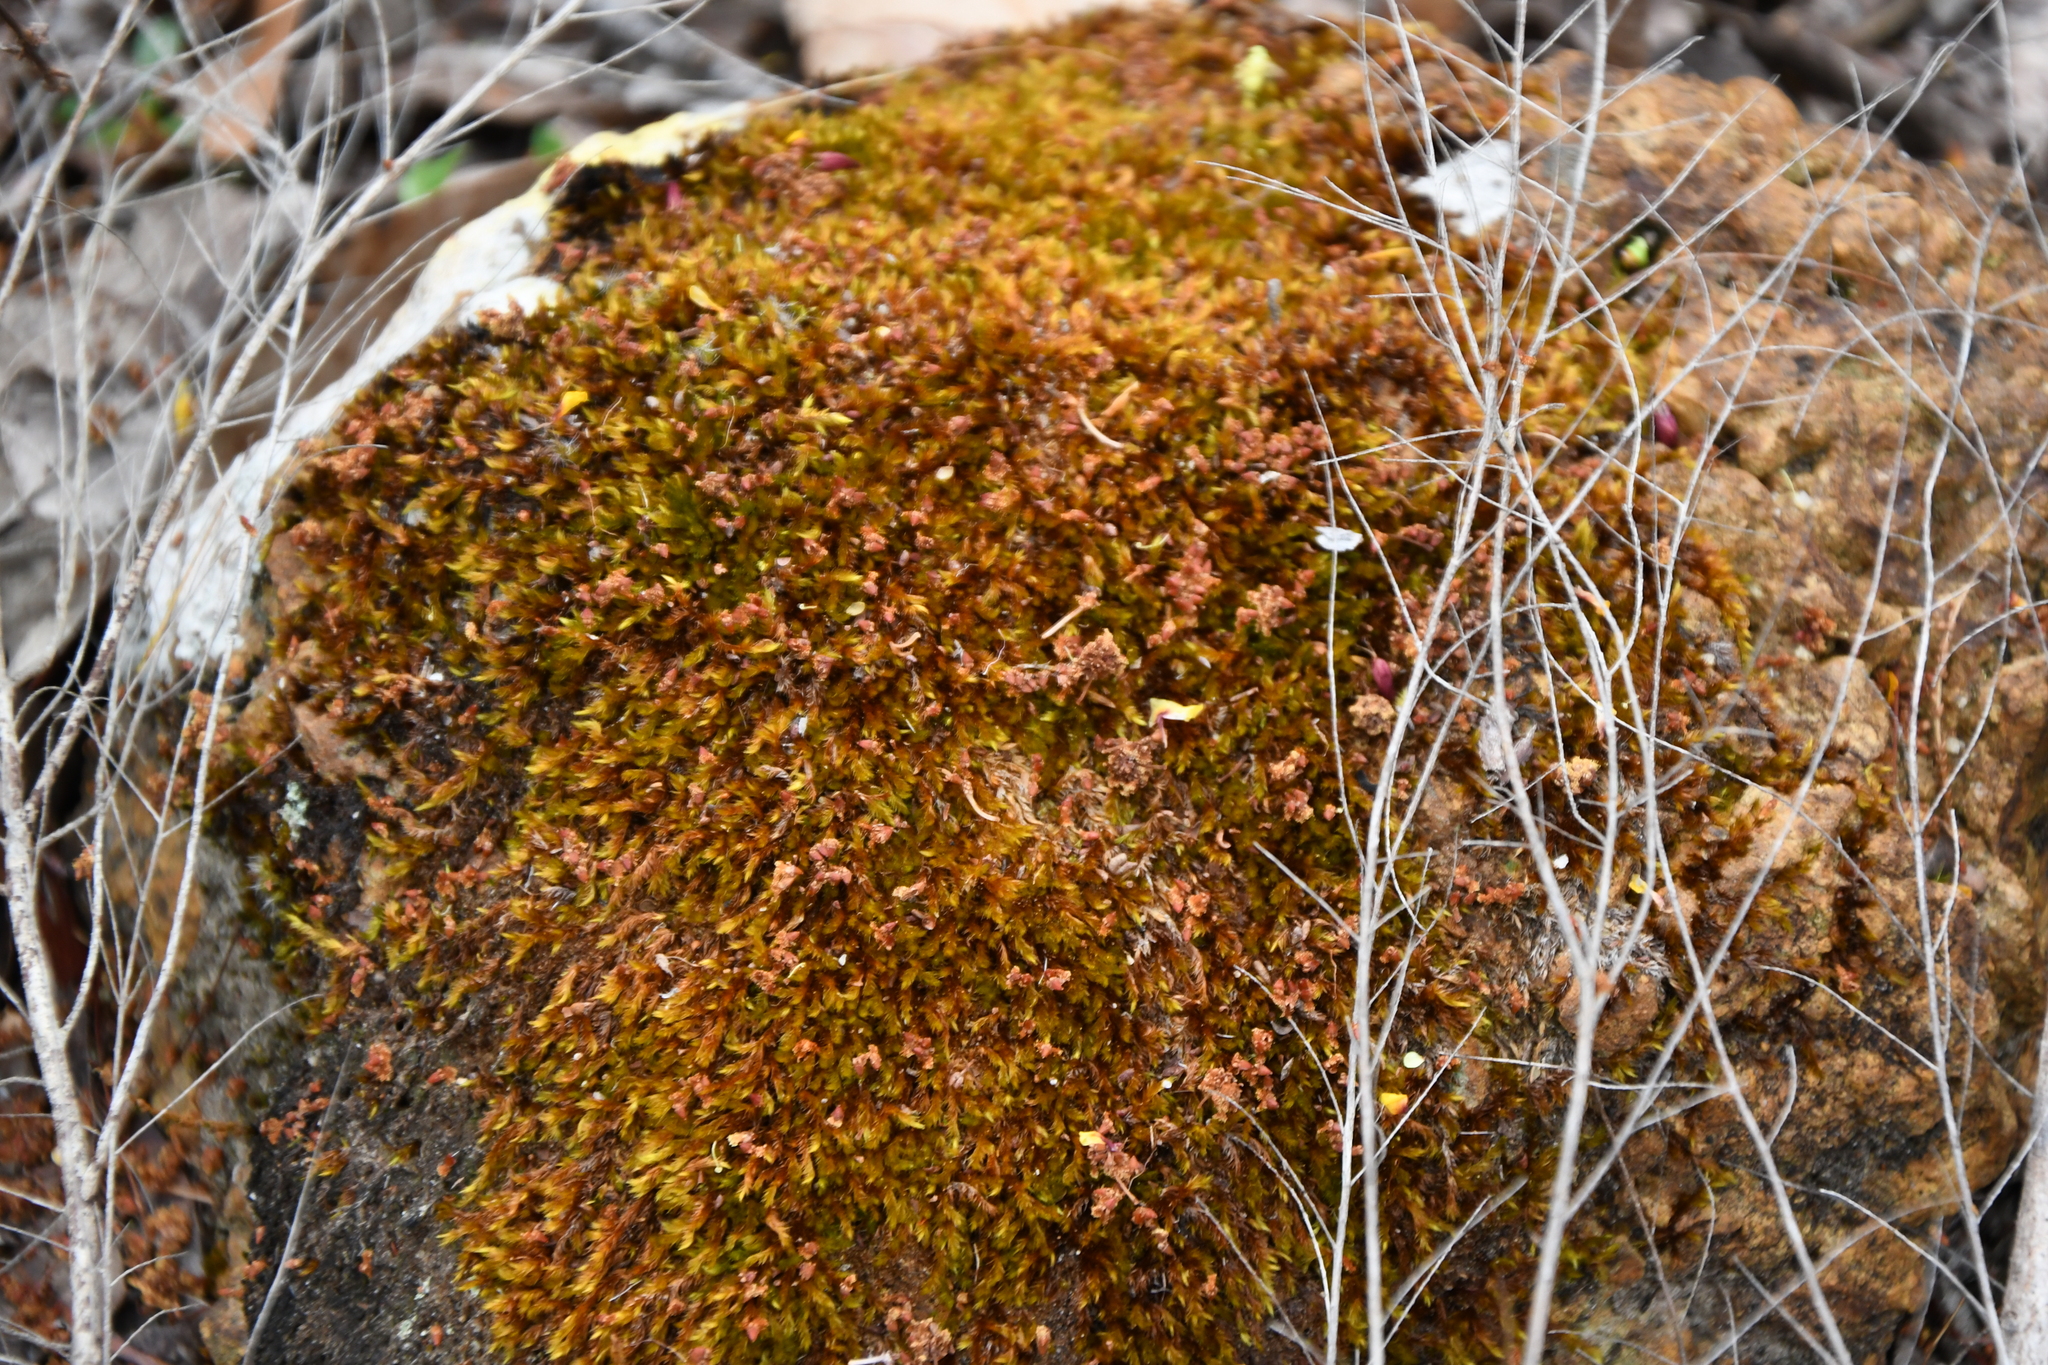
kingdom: Plantae
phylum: Bryophyta
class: Bryopsida
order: Hypnales
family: Sematophyllaceae
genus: Sematophyllum
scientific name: Sematophyllum homomallum
